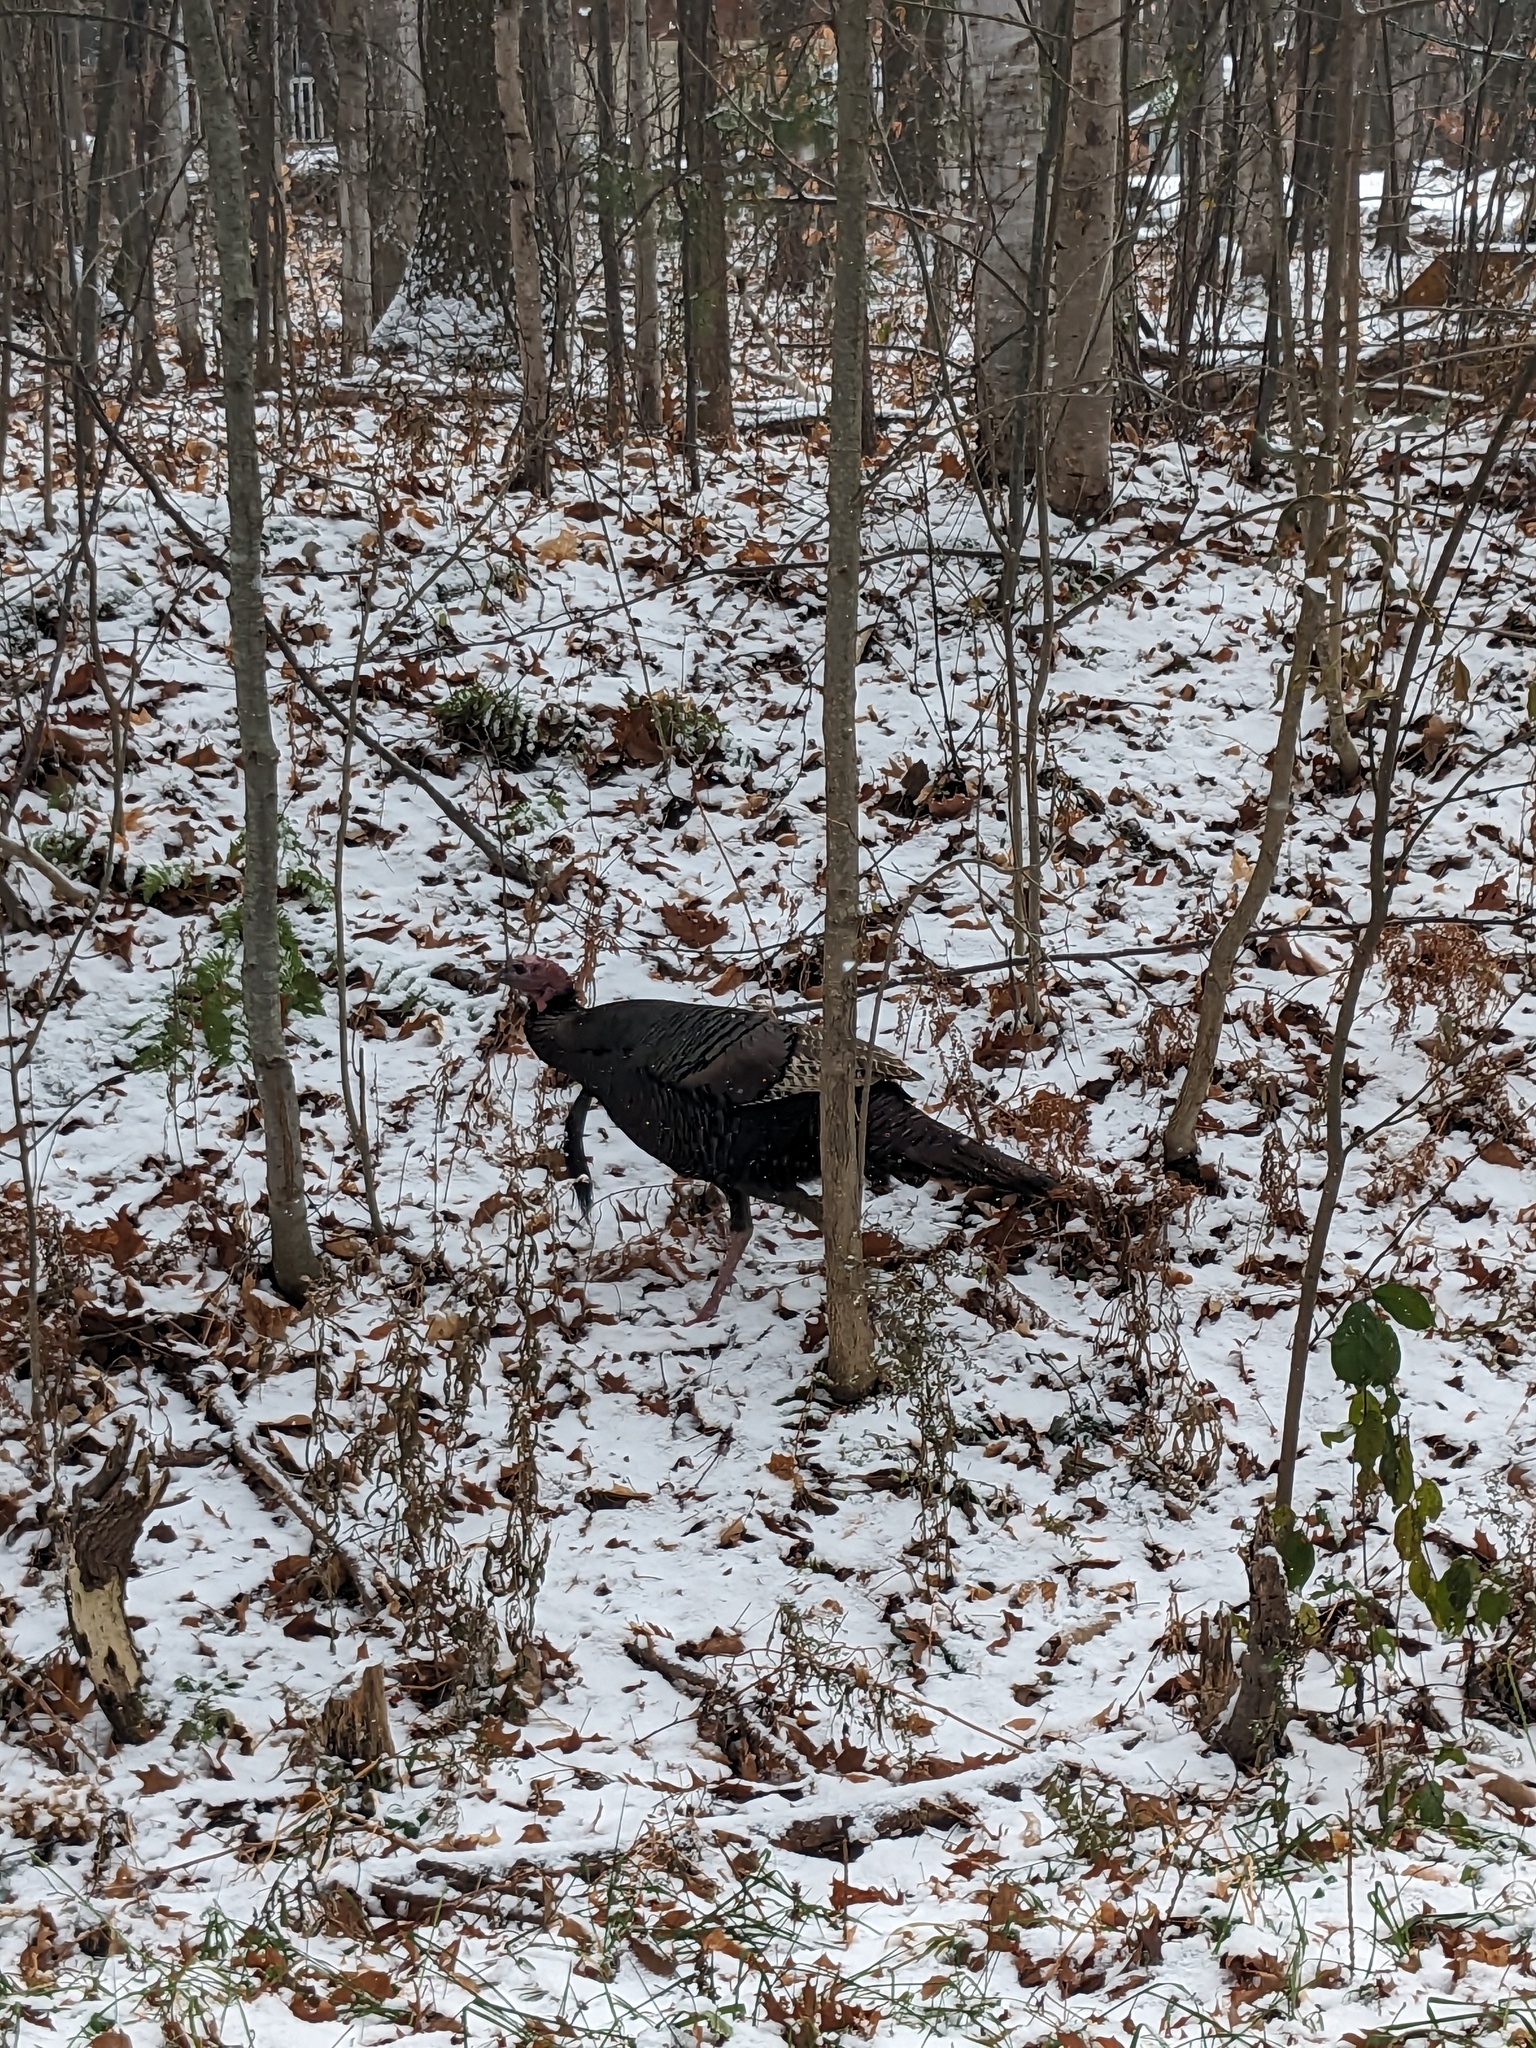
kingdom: Animalia
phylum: Chordata
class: Aves
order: Galliformes
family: Phasianidae
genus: Meleagris
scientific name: Meleagris gallopavo
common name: Wild turkey
